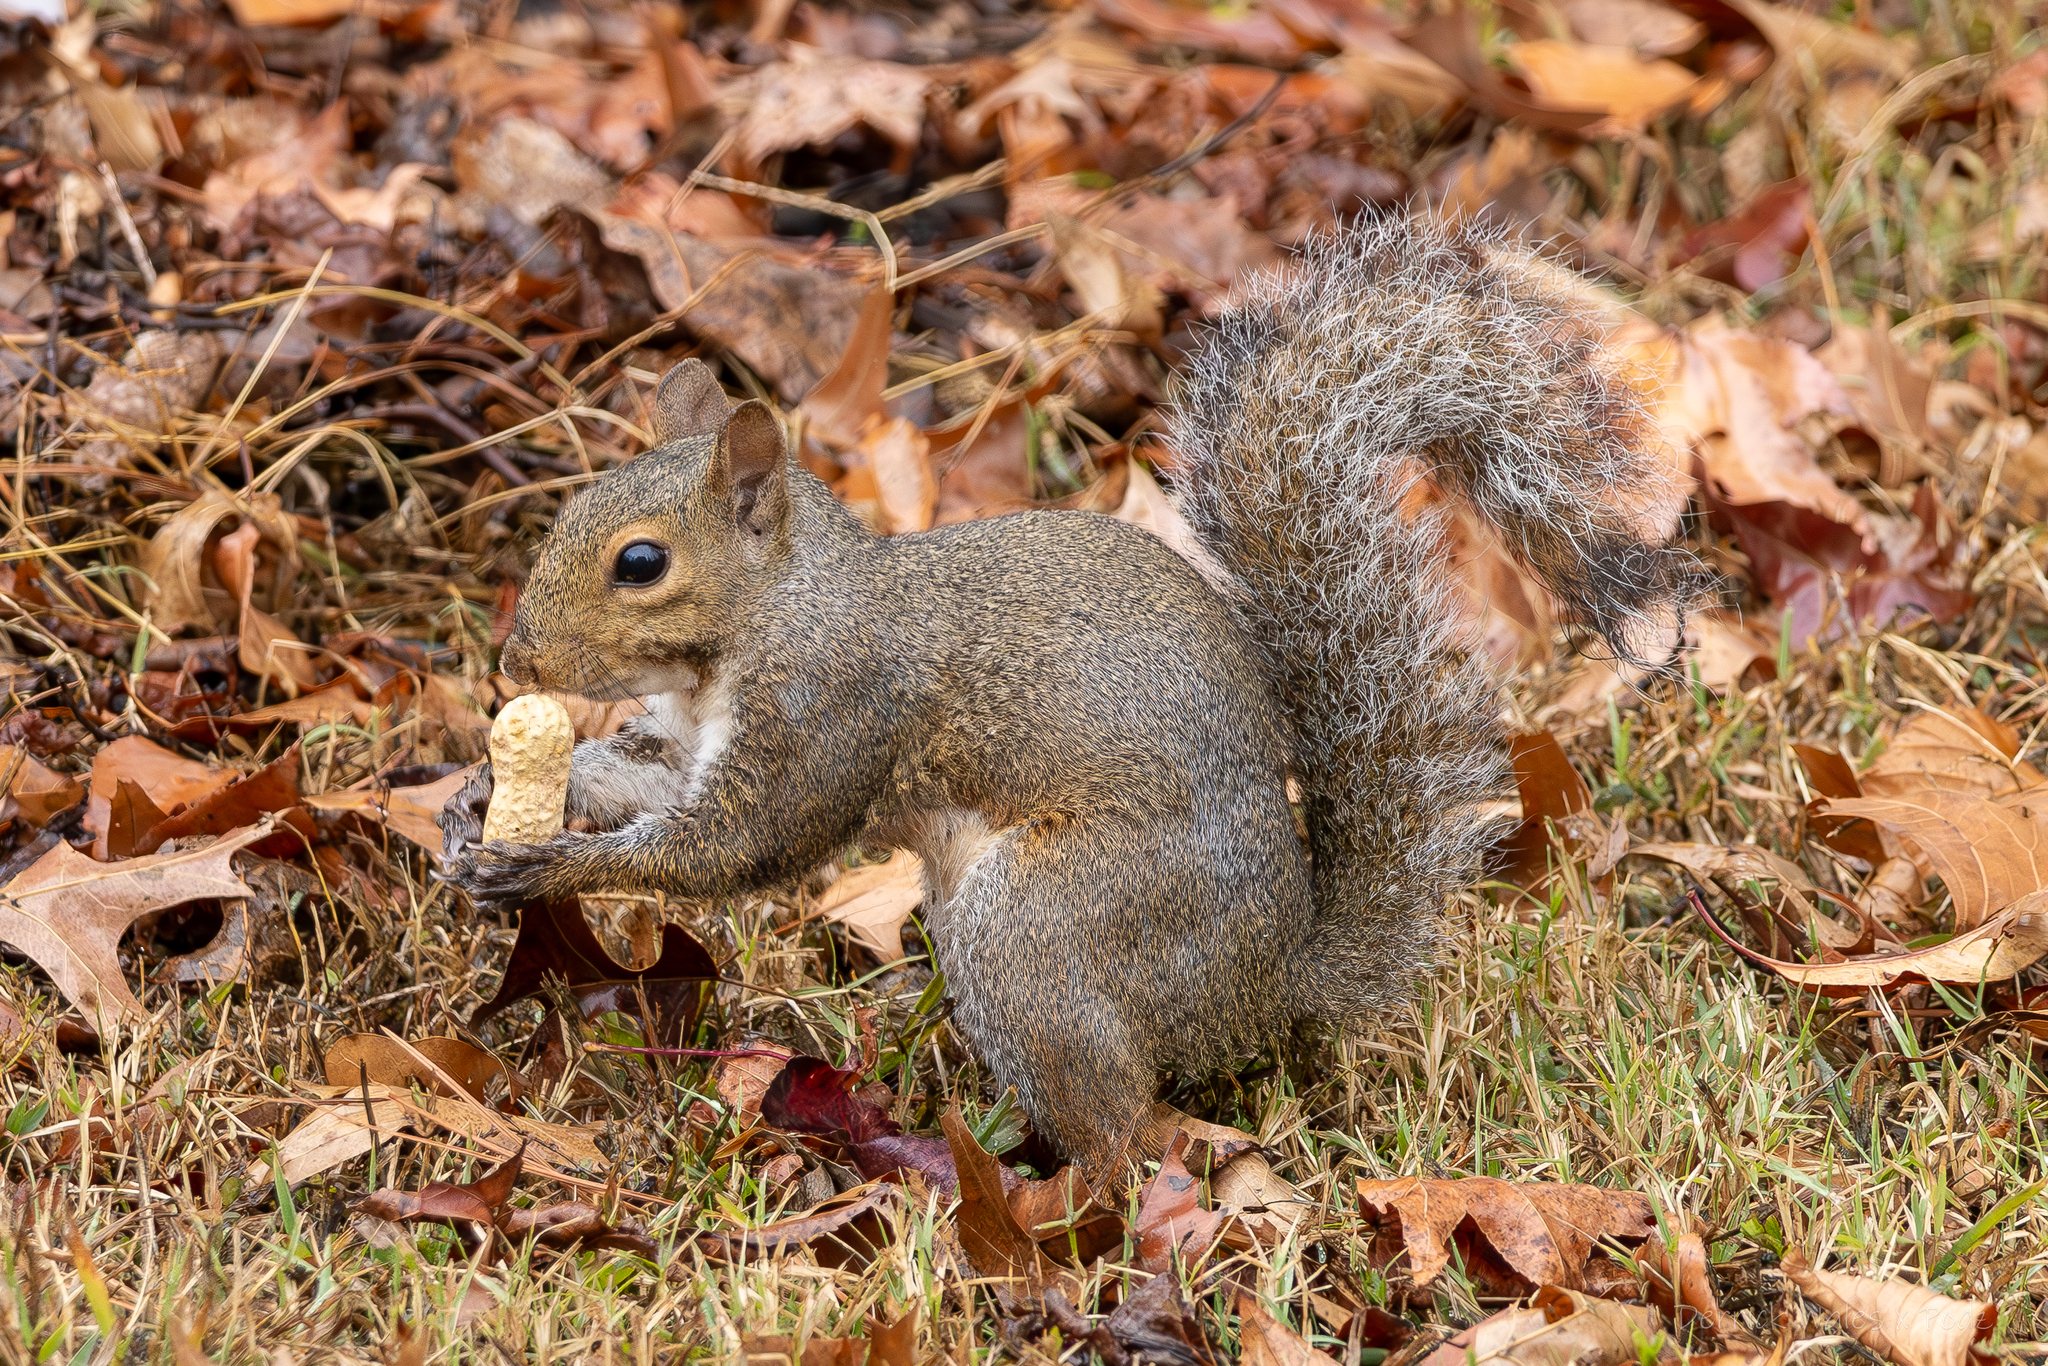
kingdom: Animalia
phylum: Chordata
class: Mammalia
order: Rodentia
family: Sciuridae
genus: Sciurus
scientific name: Sciurus carolinensis
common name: Eastern gray squirrel
